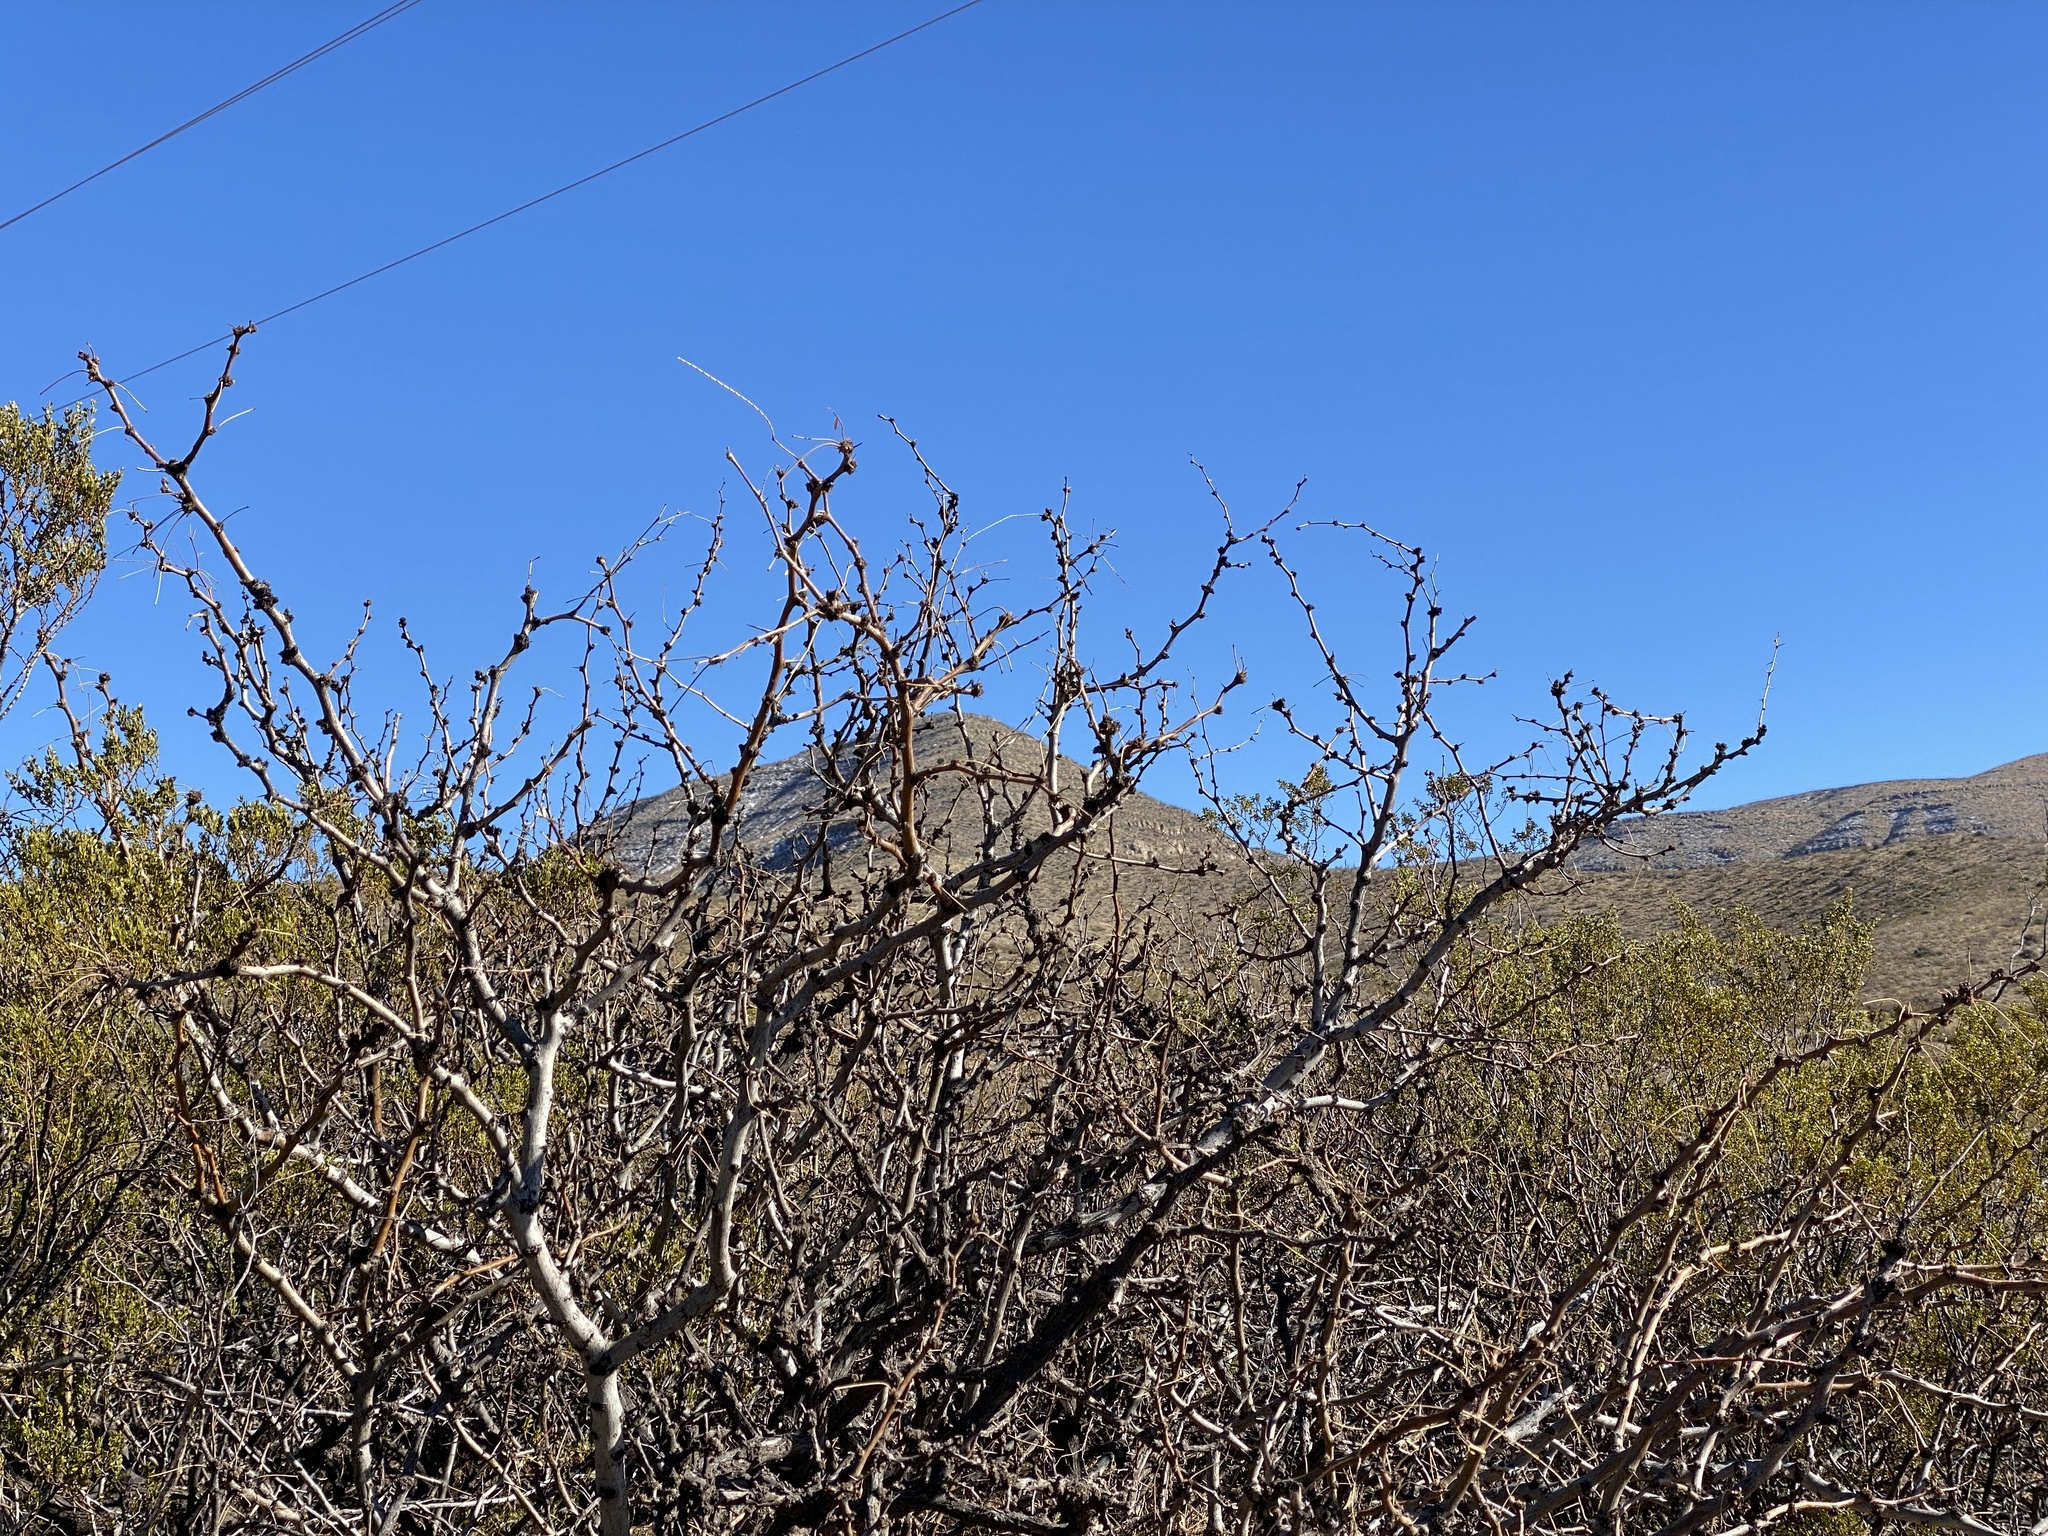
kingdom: Plantae
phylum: Tracheophyta
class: Magnoliopsida
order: Fabales
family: Fabaceae
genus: Prosopis
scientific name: Prosopis glandulosa
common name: Honey mesquite
